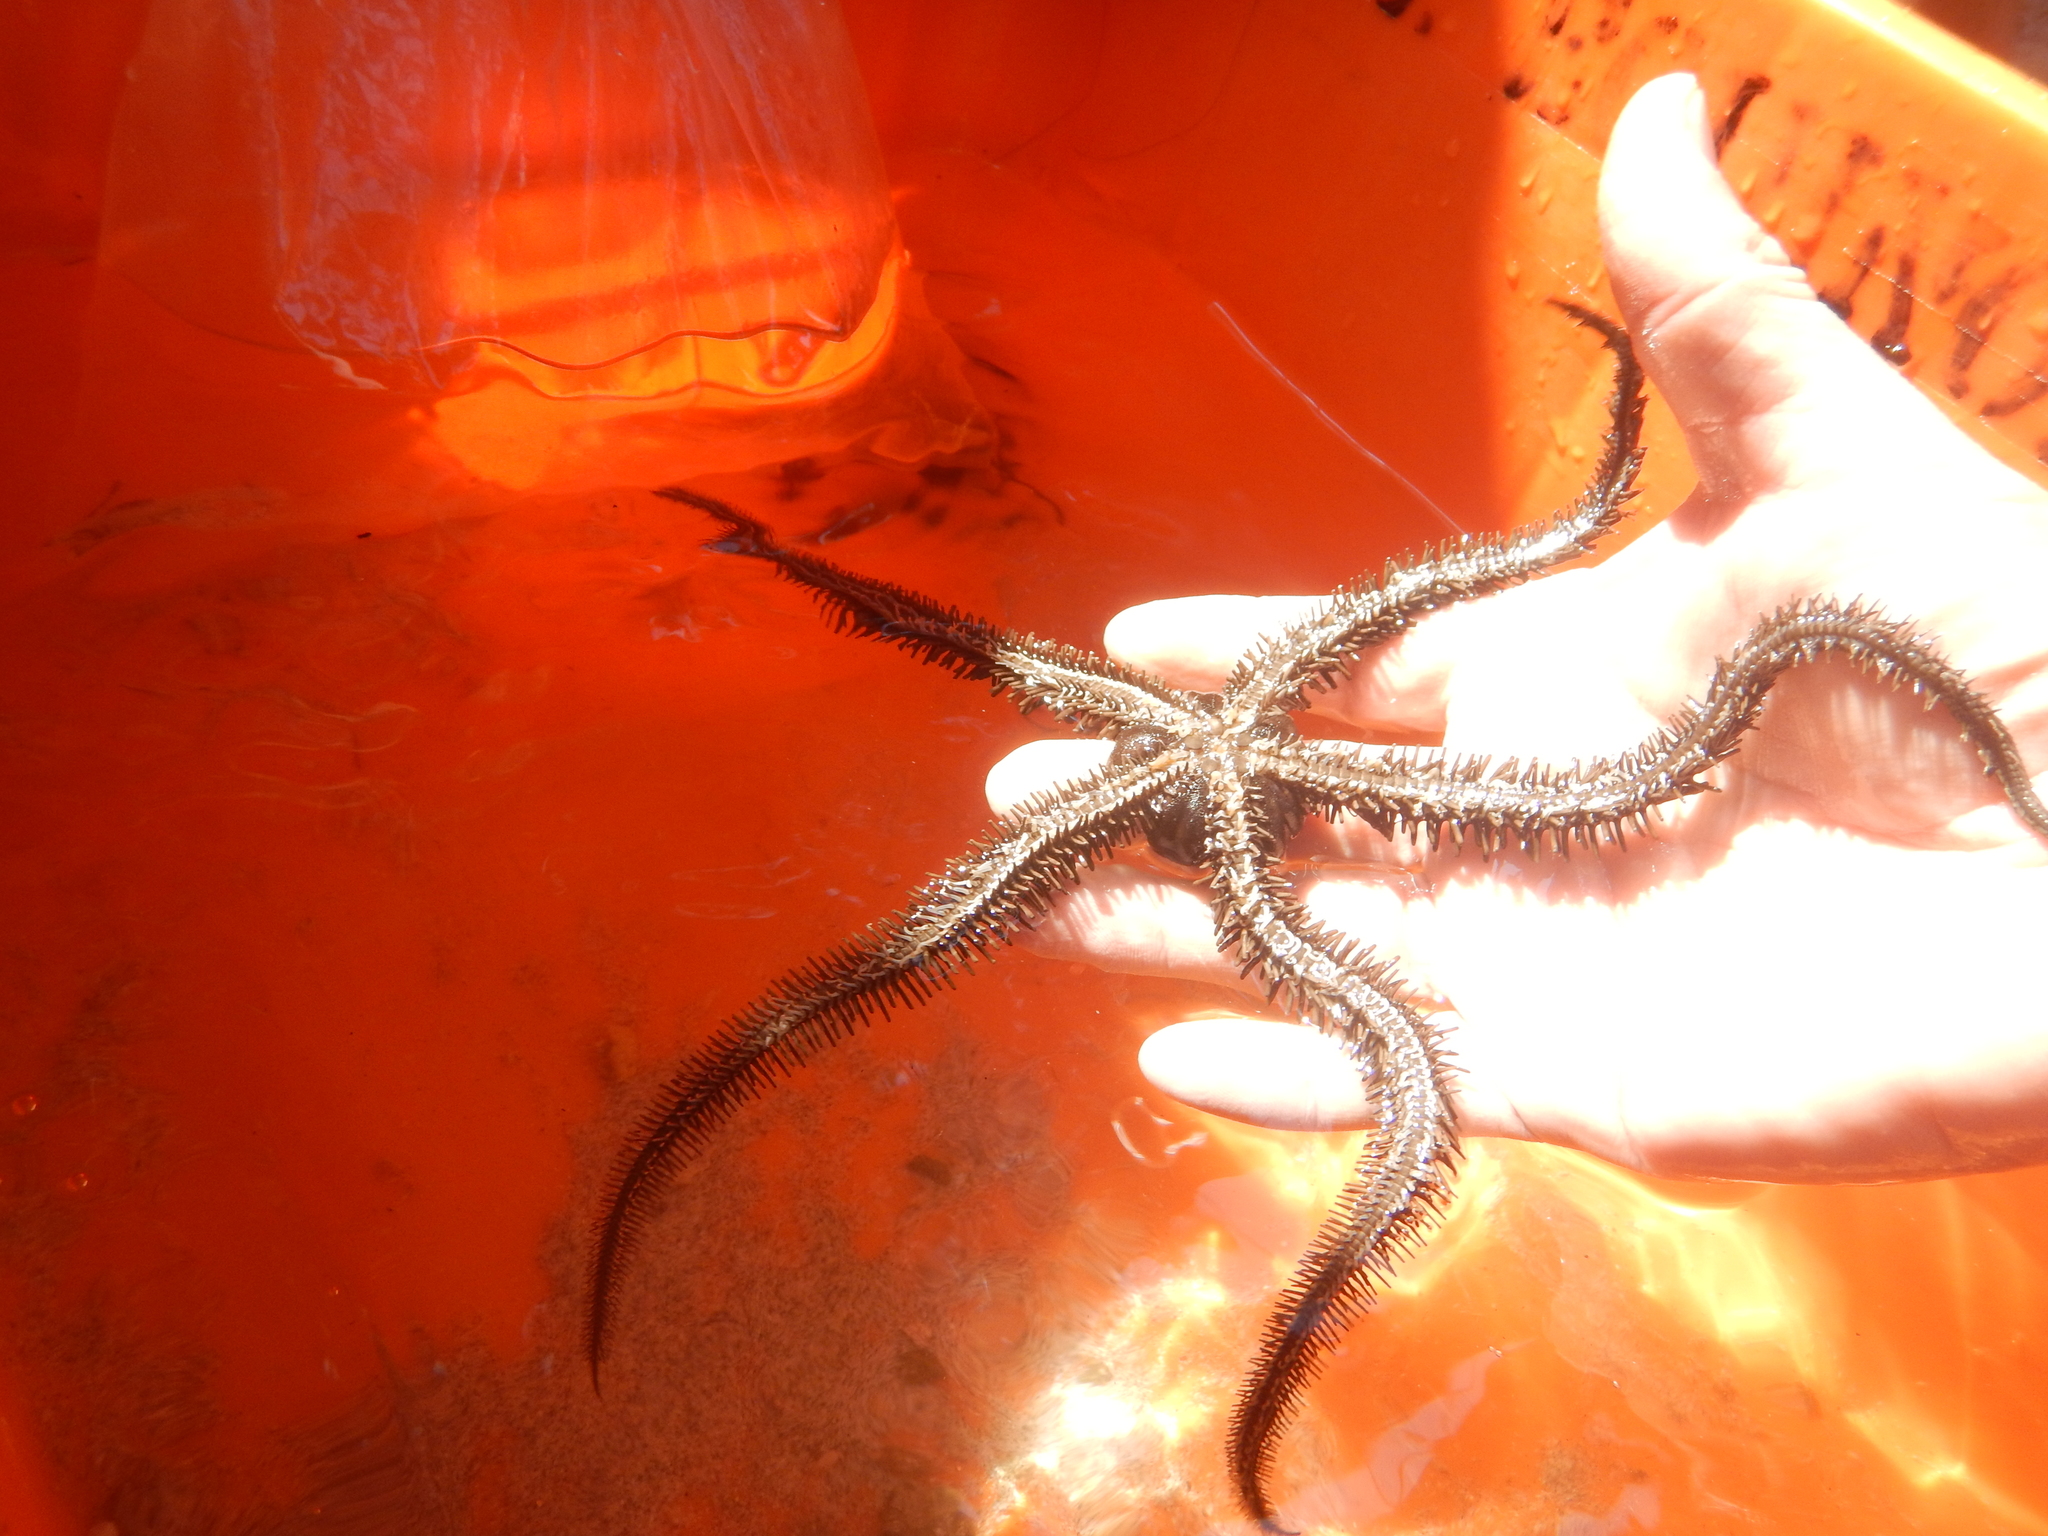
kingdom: Animalia
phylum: Echinodermata
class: Ophiuroidea
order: Ophiacanthida
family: Ophiocomidae
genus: Ophiocoma
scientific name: Ophiocoma aethiops
